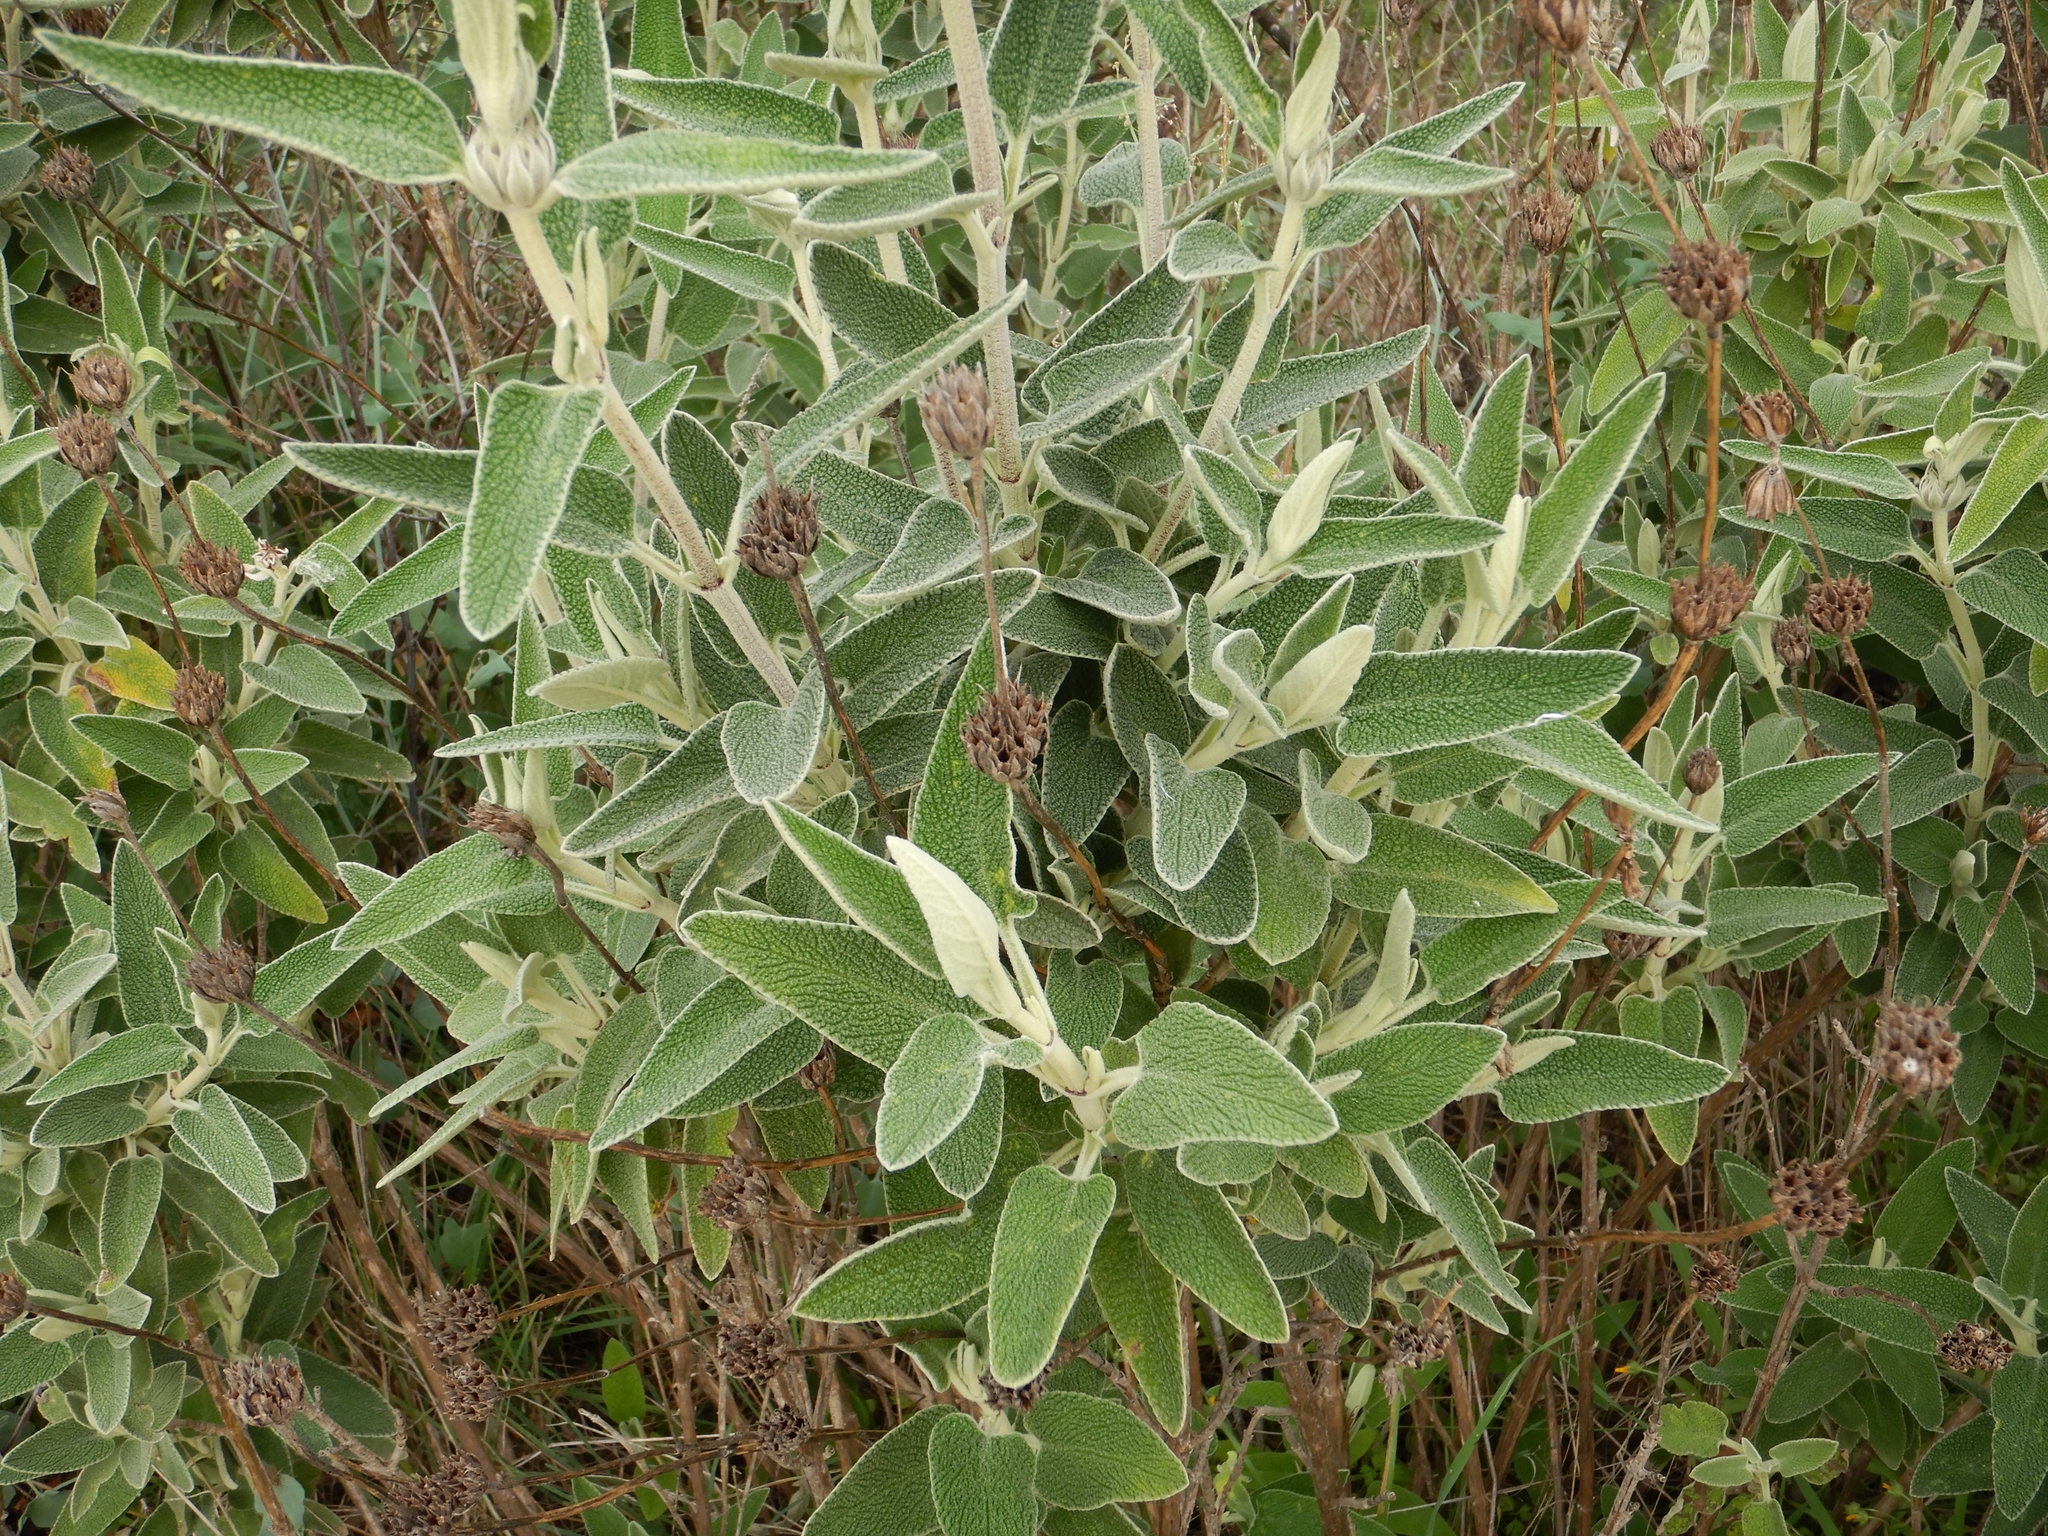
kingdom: Plantae
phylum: Tracheophyta
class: Magnoliopsida
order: Lamiales
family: Lamiaceae
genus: Phlomis
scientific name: Phlomis purpurea
